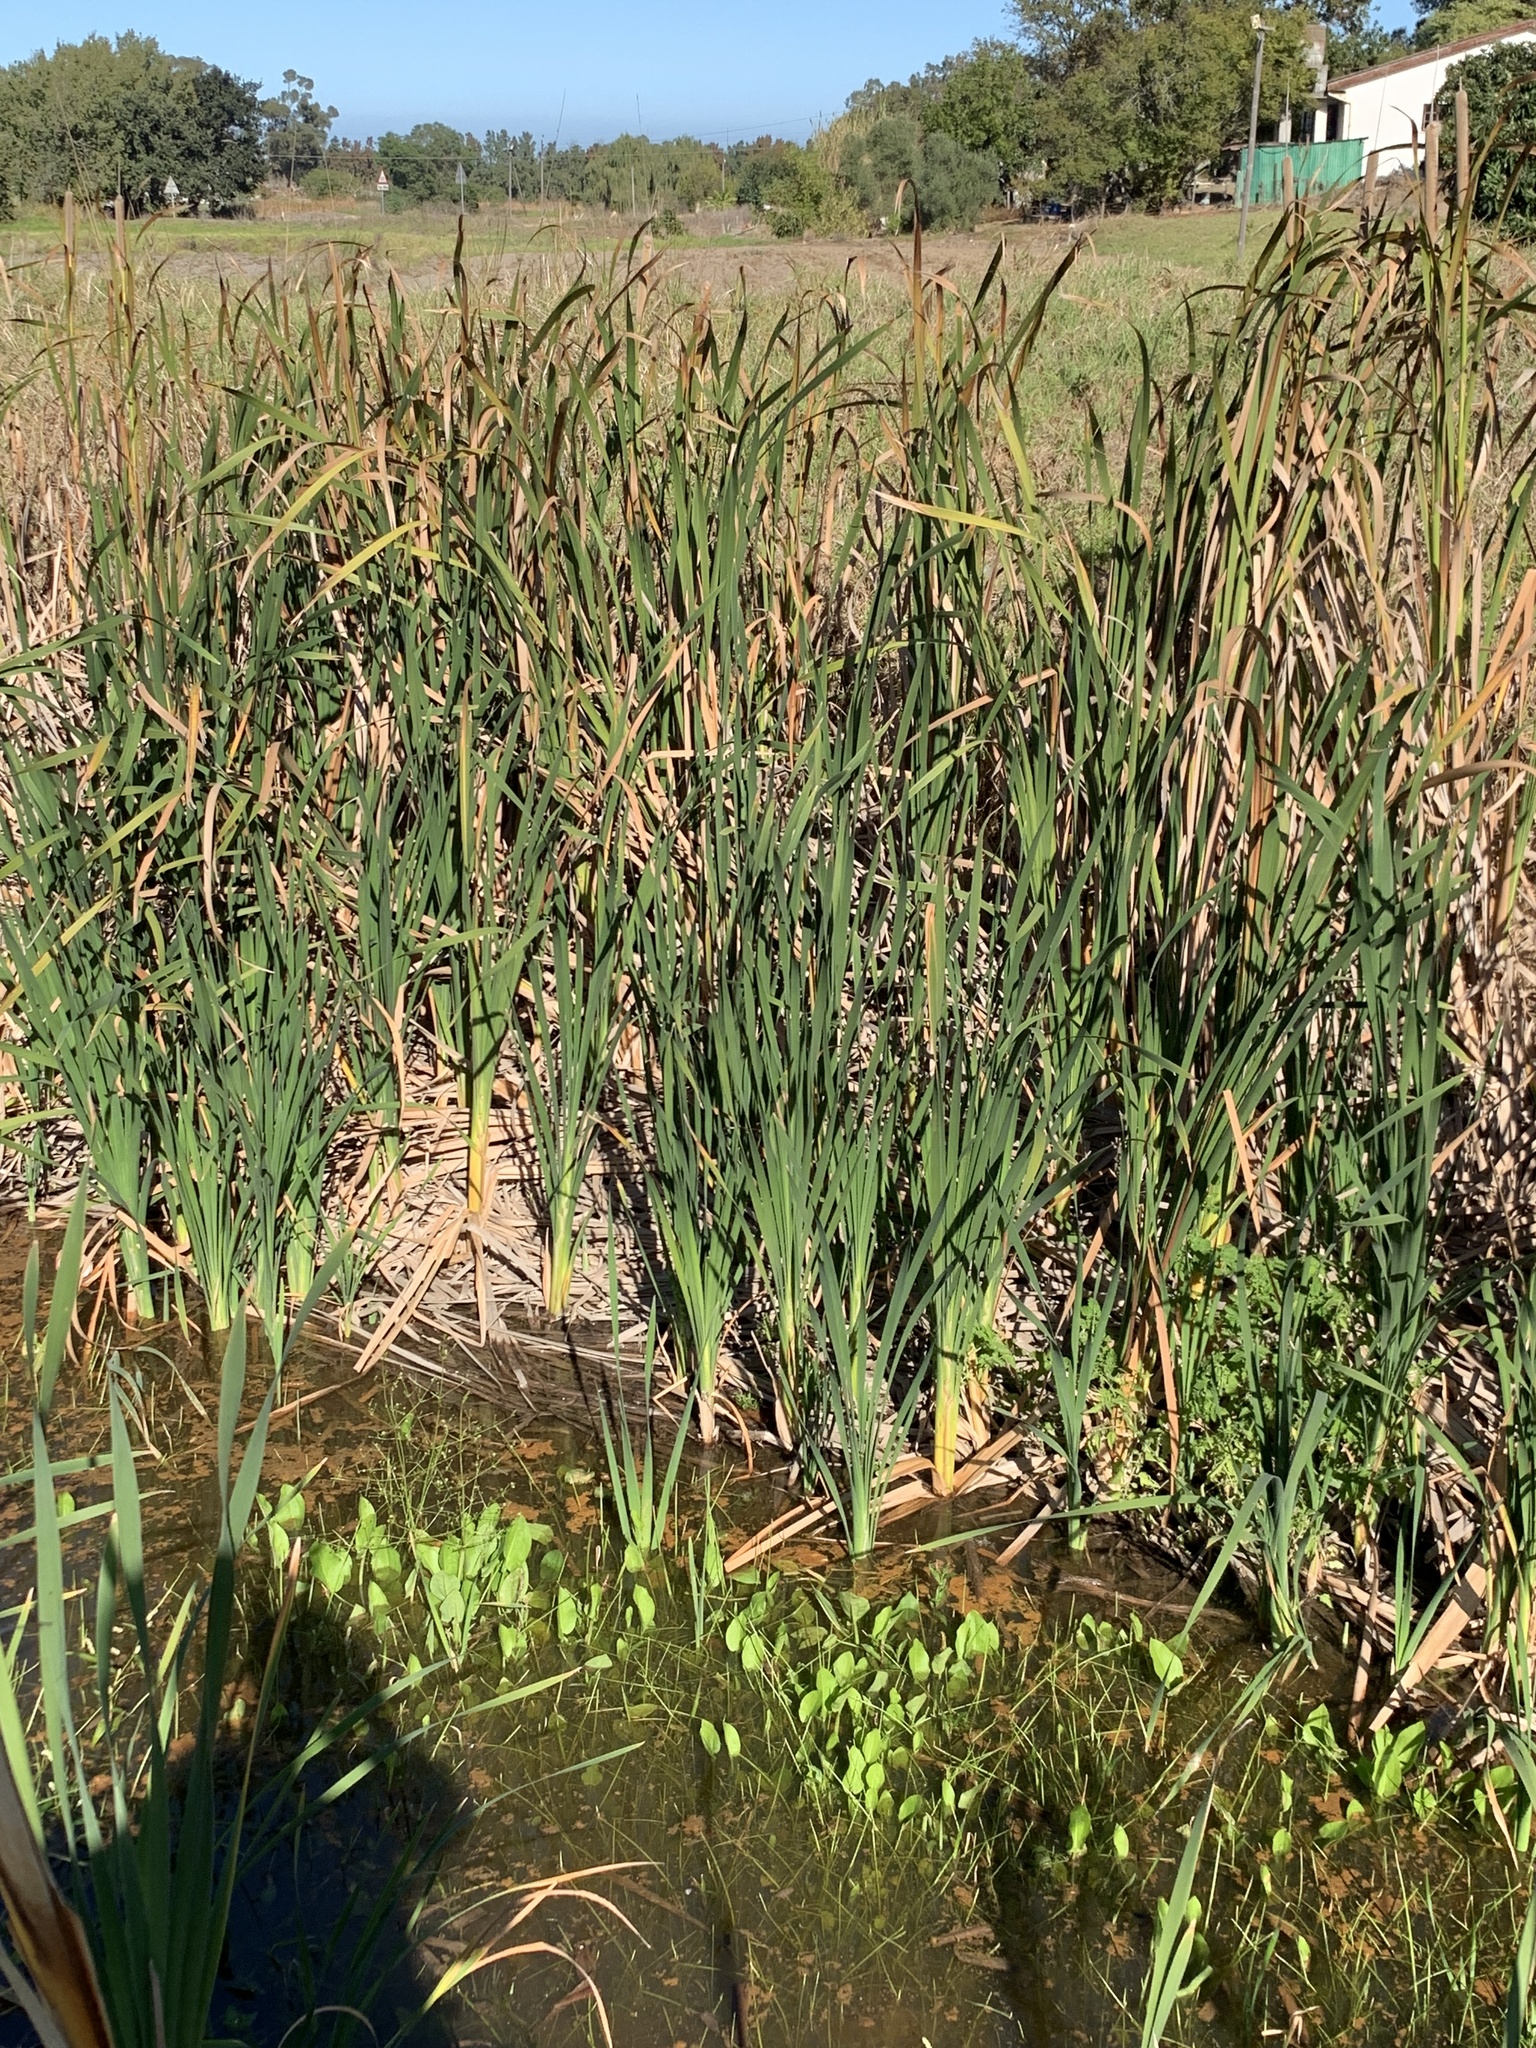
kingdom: Plantae
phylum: Tracheophyta
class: Liliopsida
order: Poales
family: Typhaceae
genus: Typha
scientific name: Typha capensis
